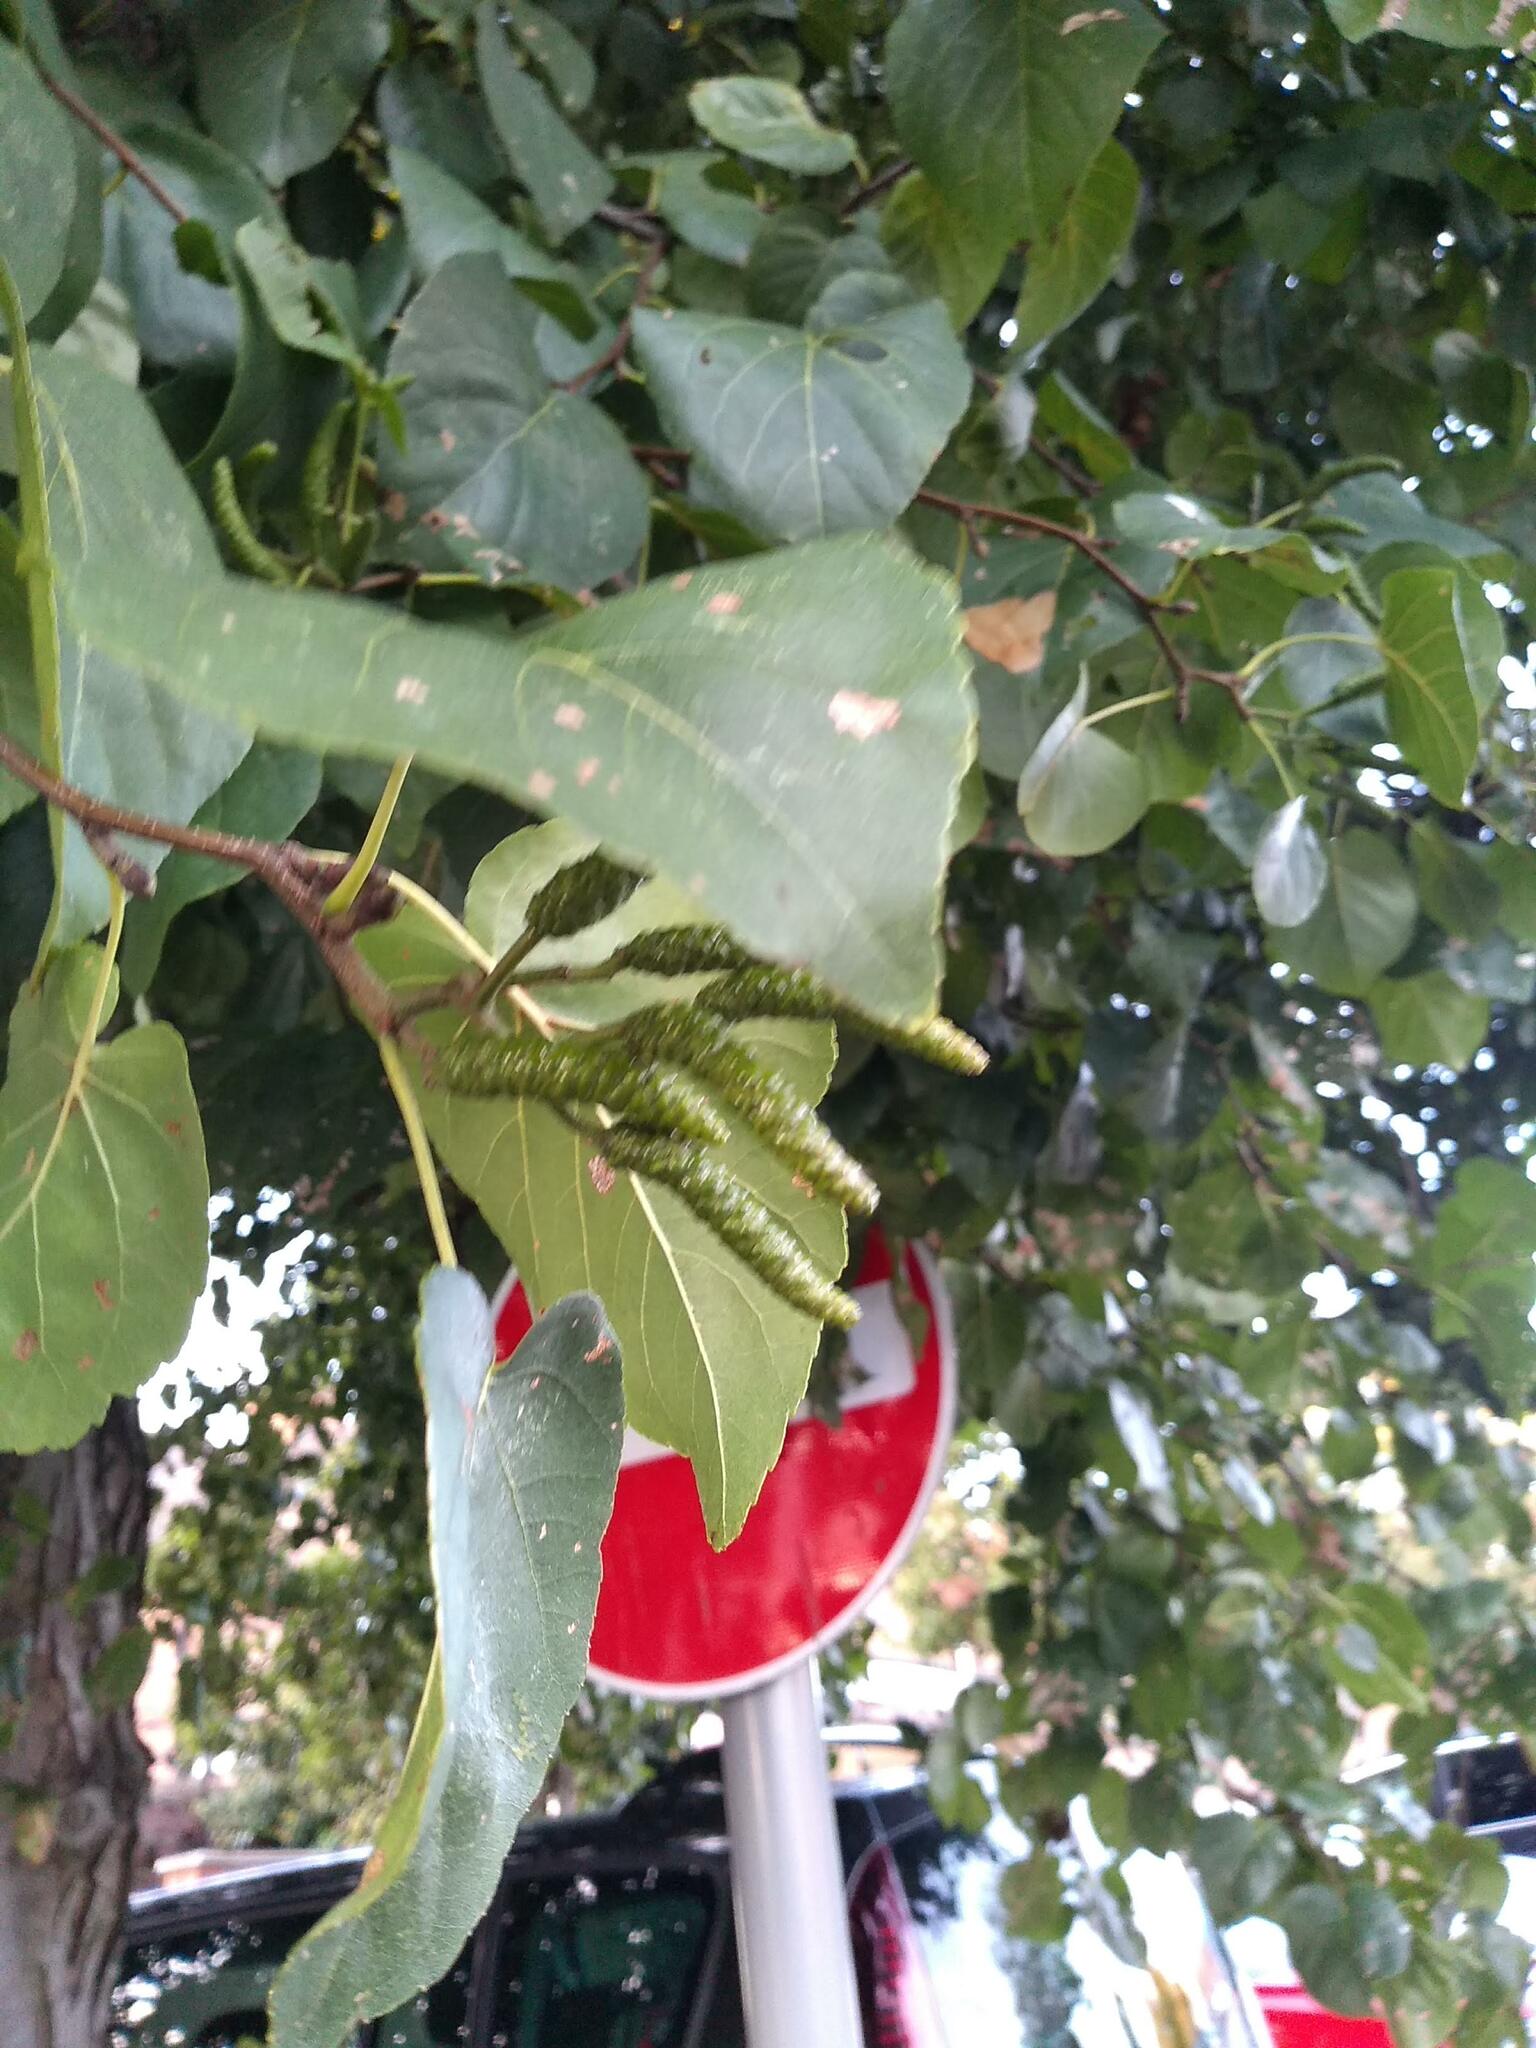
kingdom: Plantae
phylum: Tracheophyta
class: Magnoliopsida
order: Fagales
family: Betulaceae
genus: Alnus
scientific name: Alnus cordata
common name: Italian alder
